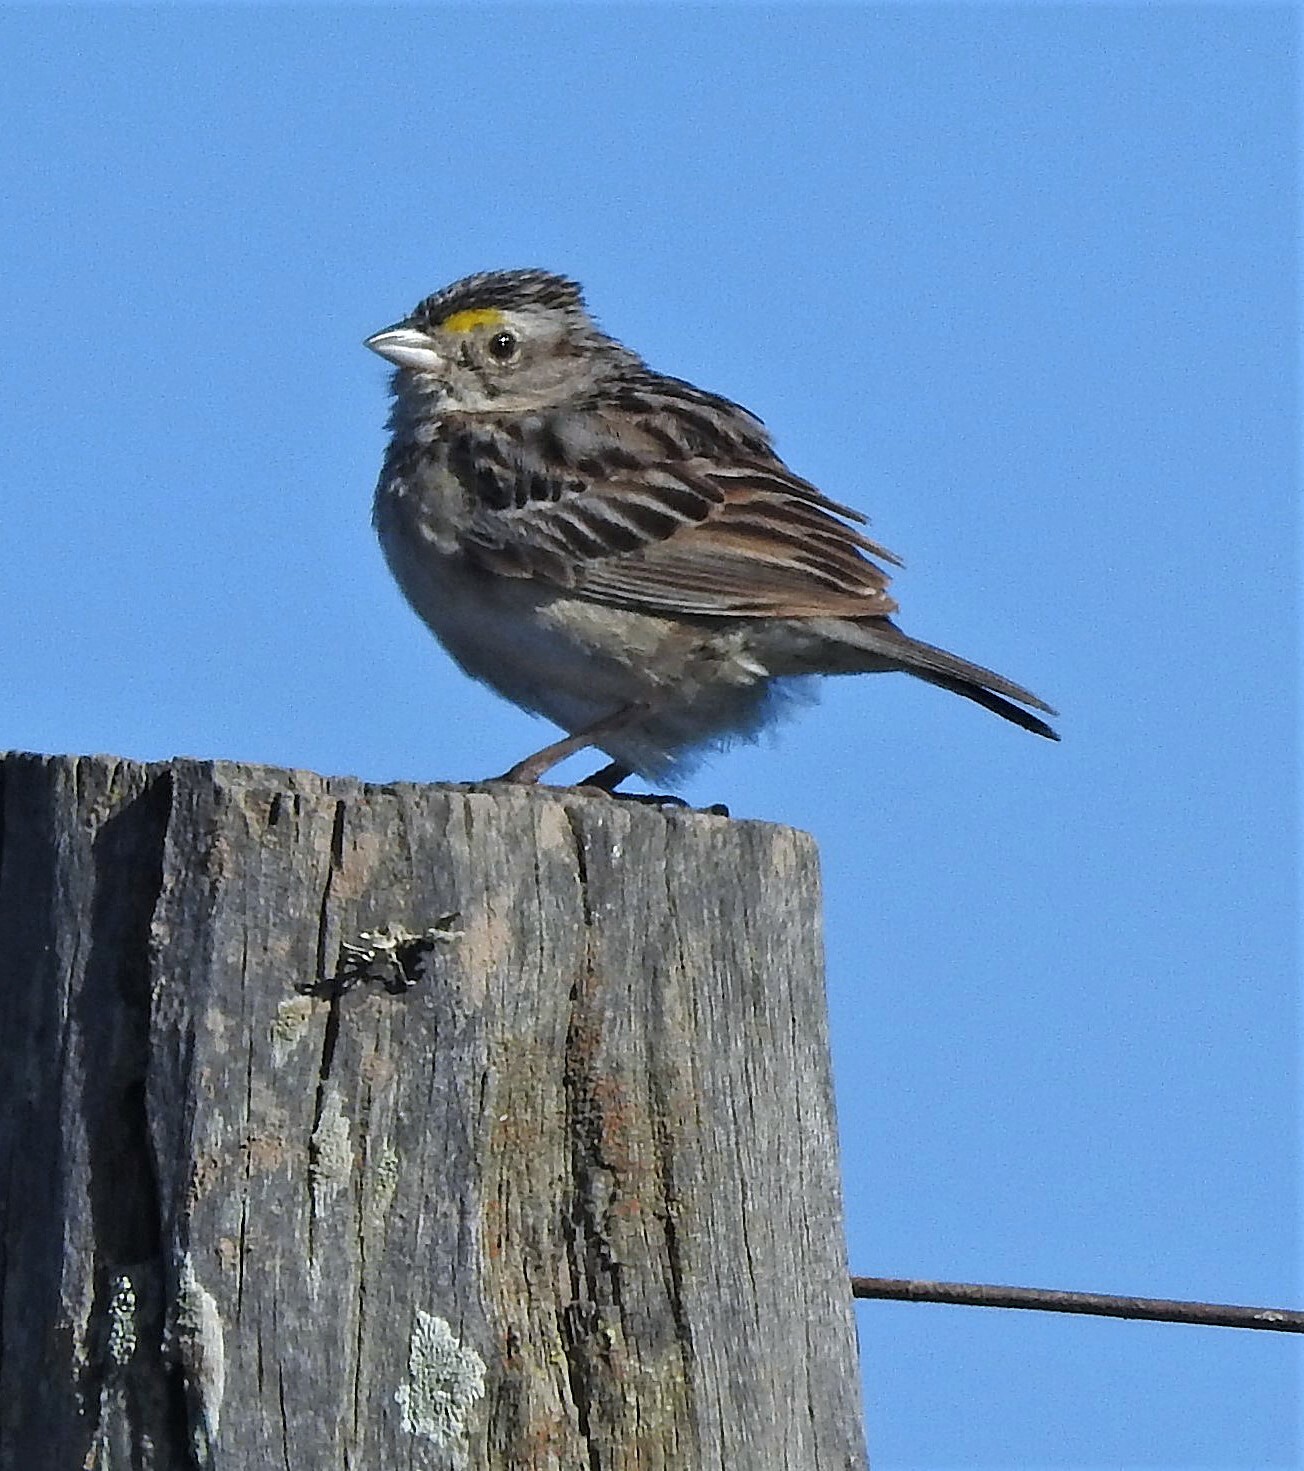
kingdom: Animalia
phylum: Chordata
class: Aves
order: Passeriformes
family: Passerellidae
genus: Ammodramus
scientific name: Ammodramus humeralis
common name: Grassland sparrow
